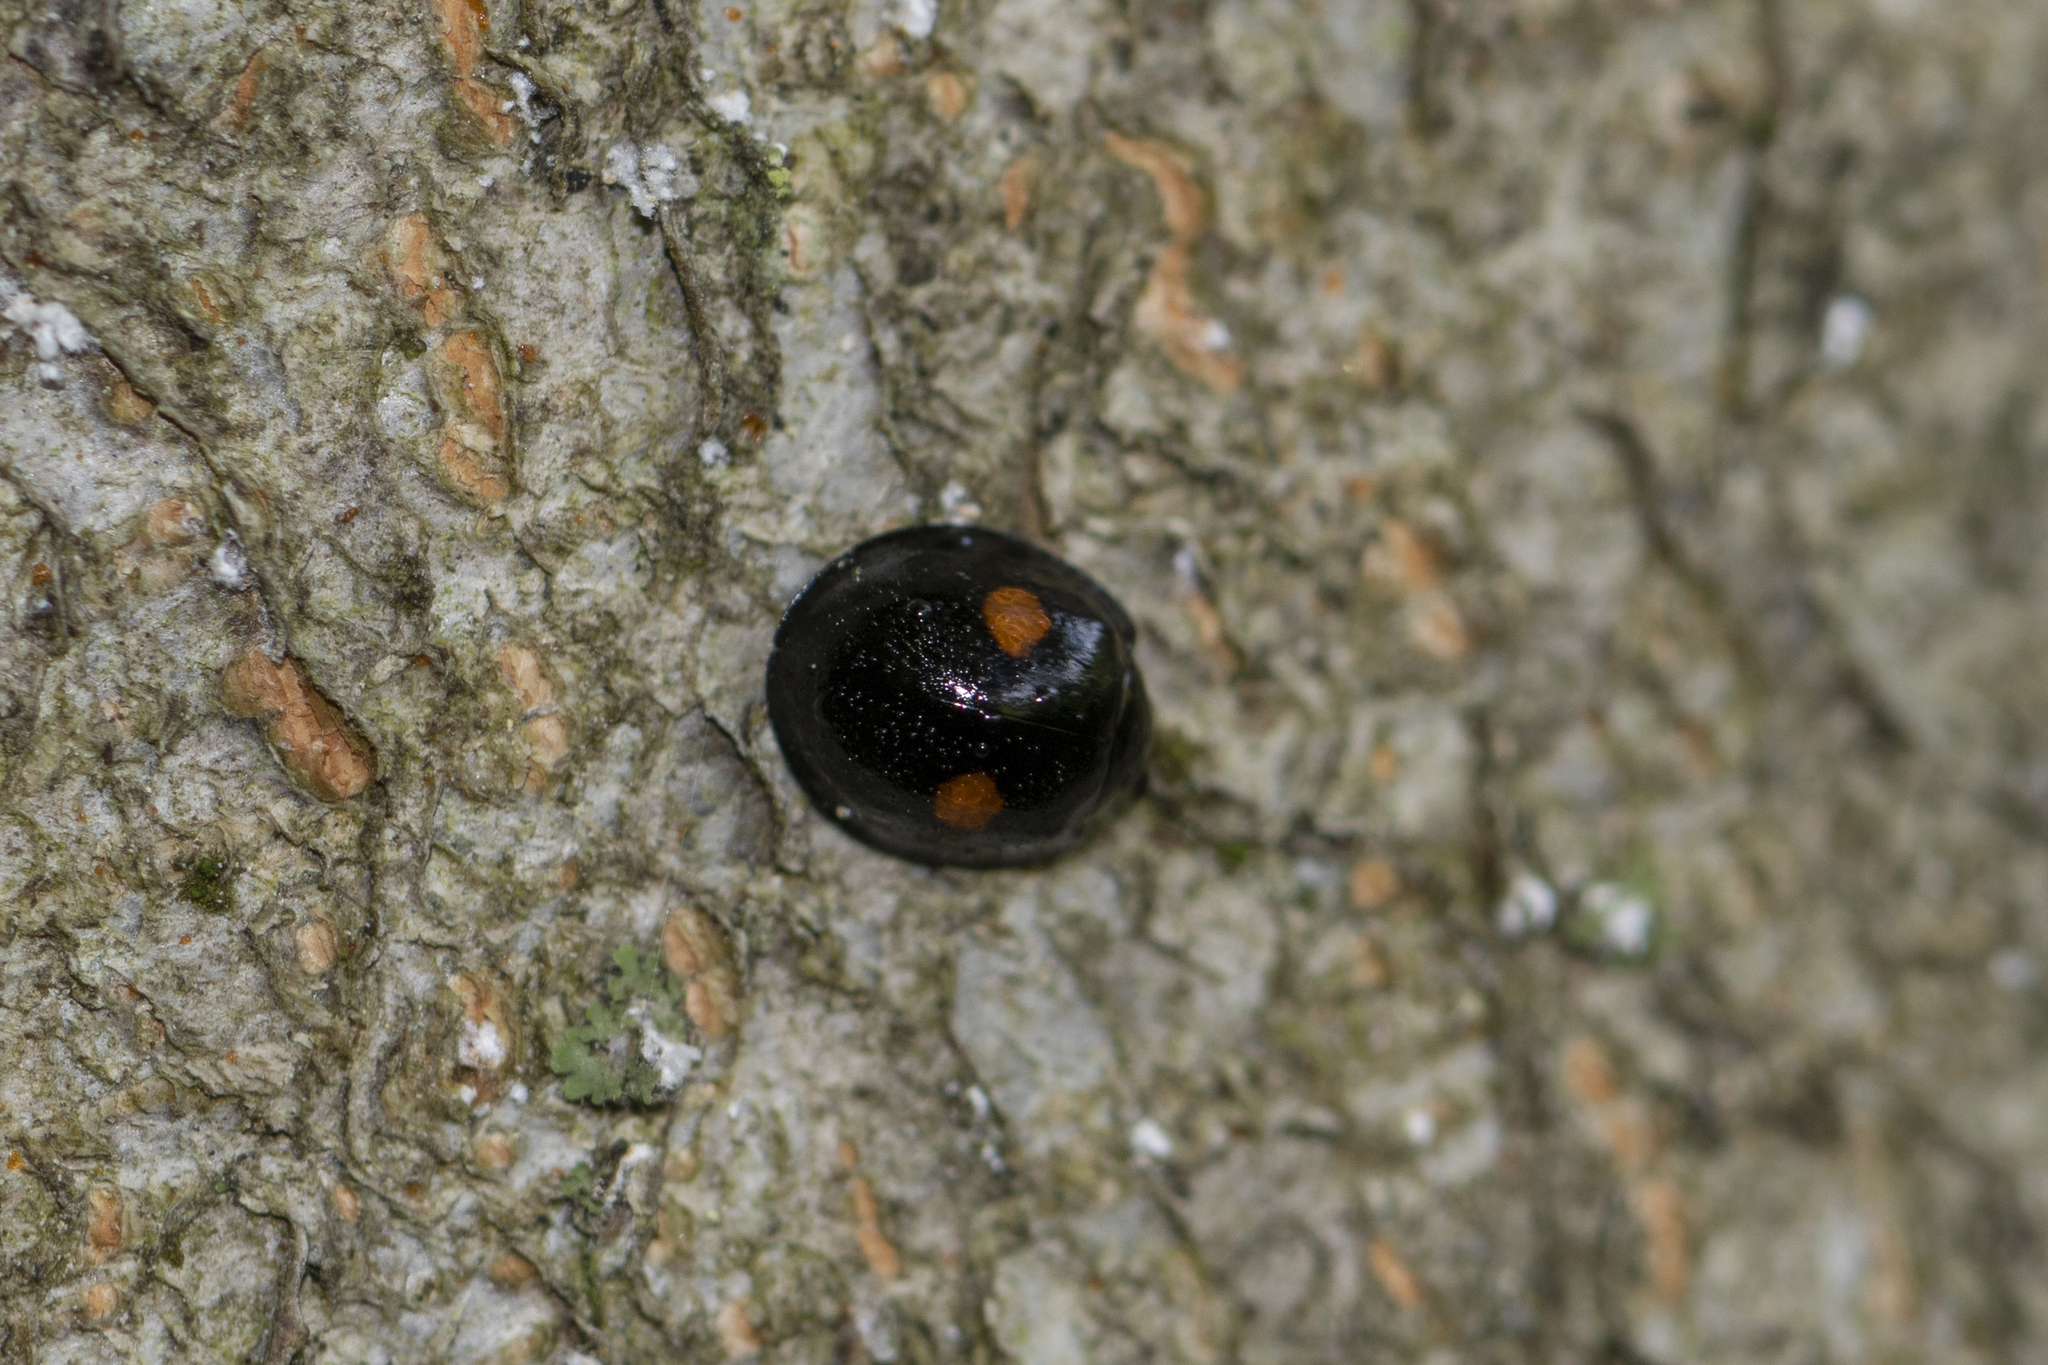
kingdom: Animalia
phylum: Arthropoda
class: Insecta
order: Coleoptera
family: Coccinellidae
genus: Chilocorus
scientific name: Chilocorus stigma
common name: Twicestabbed lady beetle
